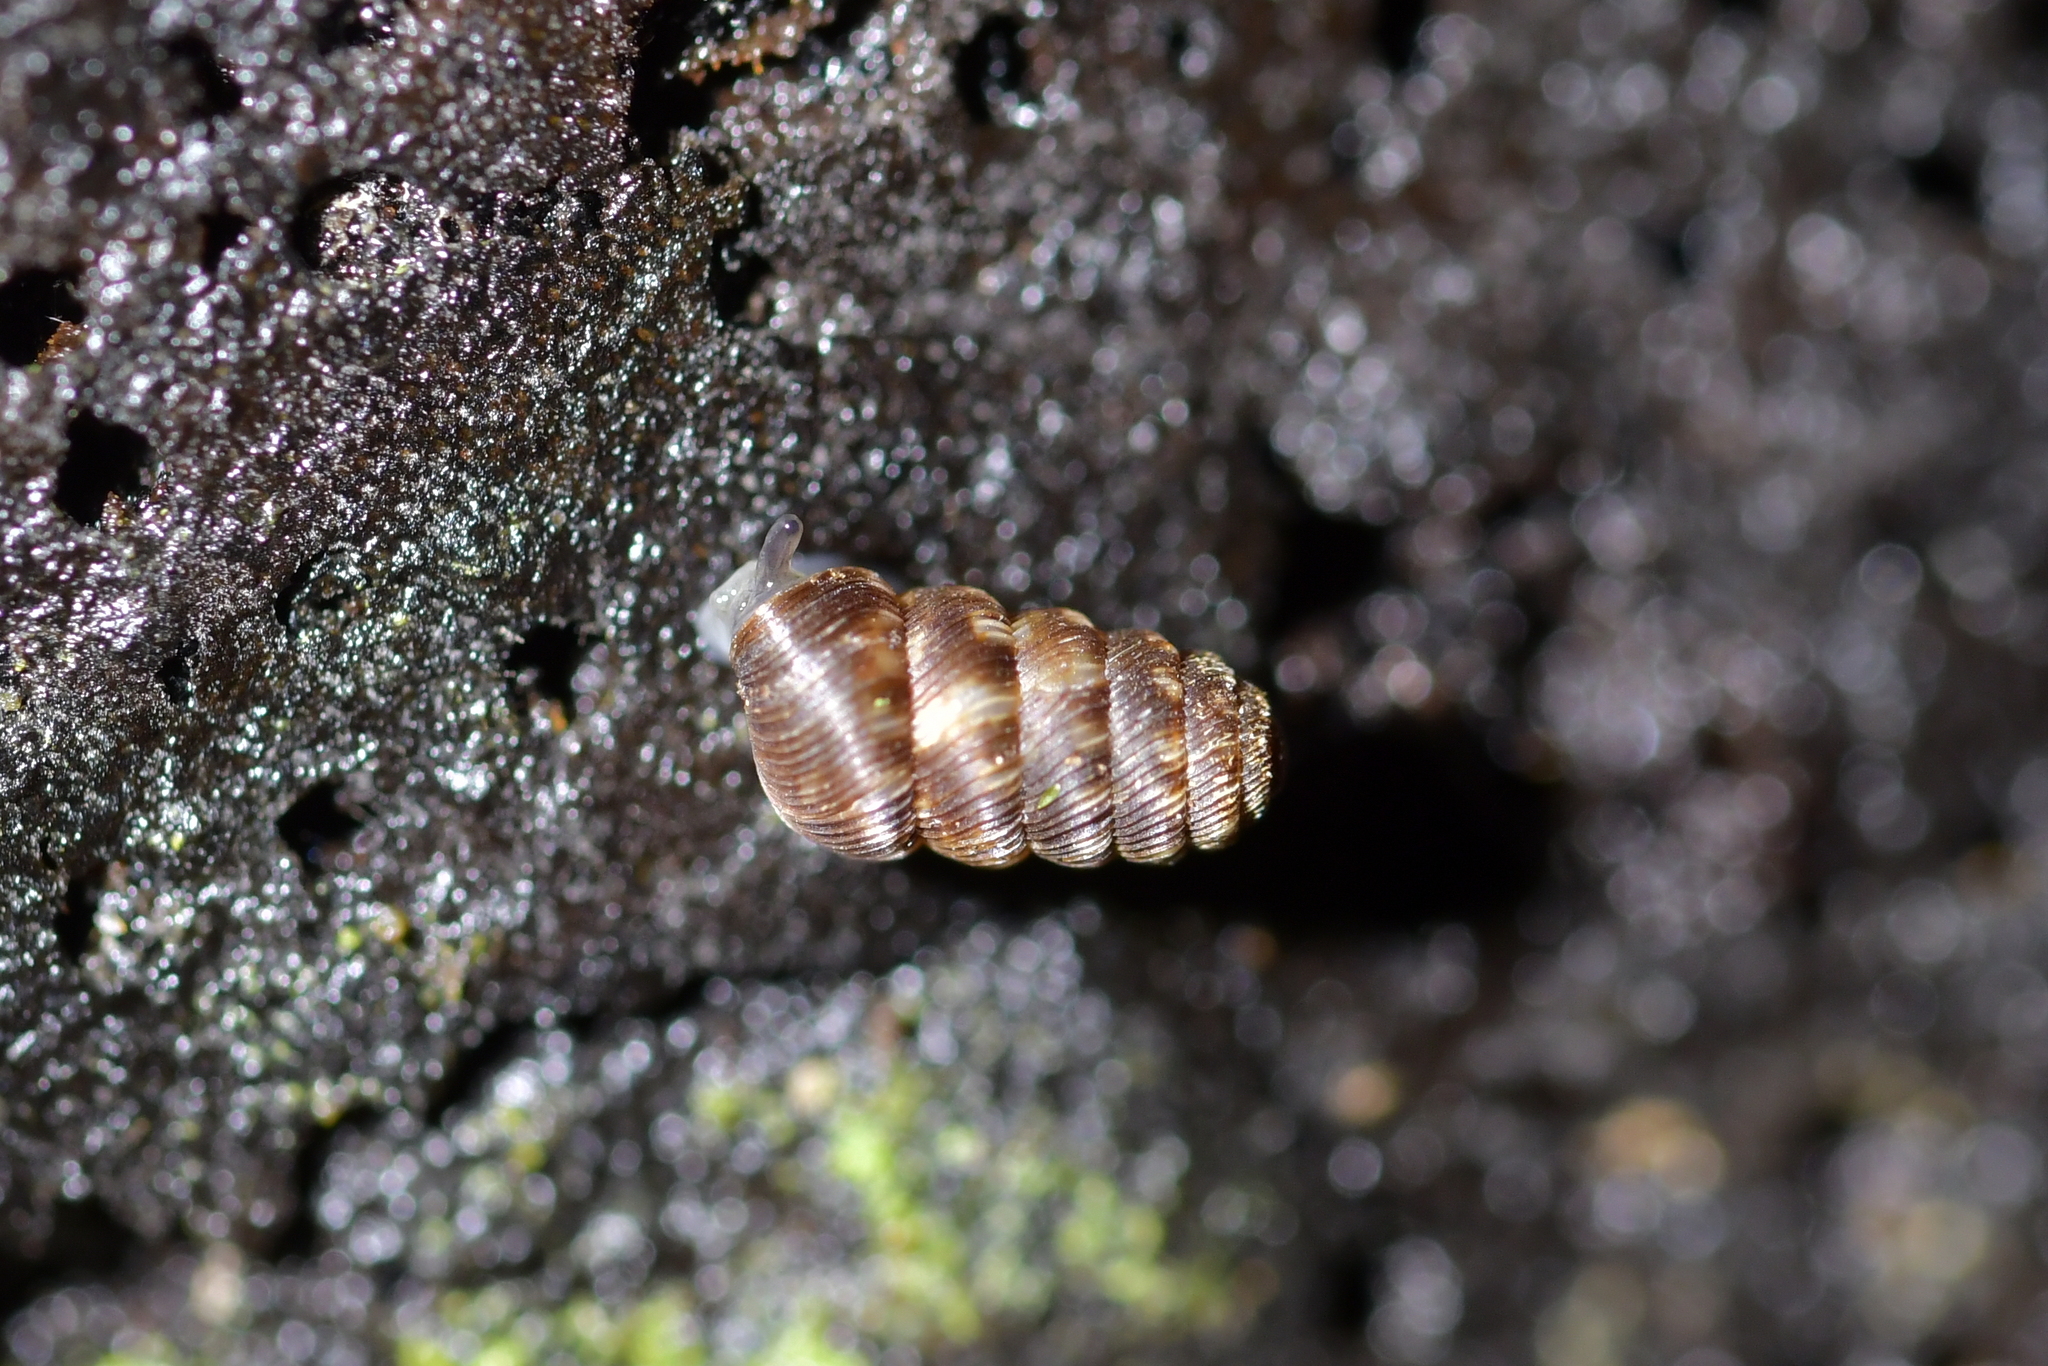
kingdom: Animalia
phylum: Mollusca
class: Gastropoda
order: Stylommatophora
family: Charopidae
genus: Phenacharopa
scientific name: Phenacharopa novoseelandica
